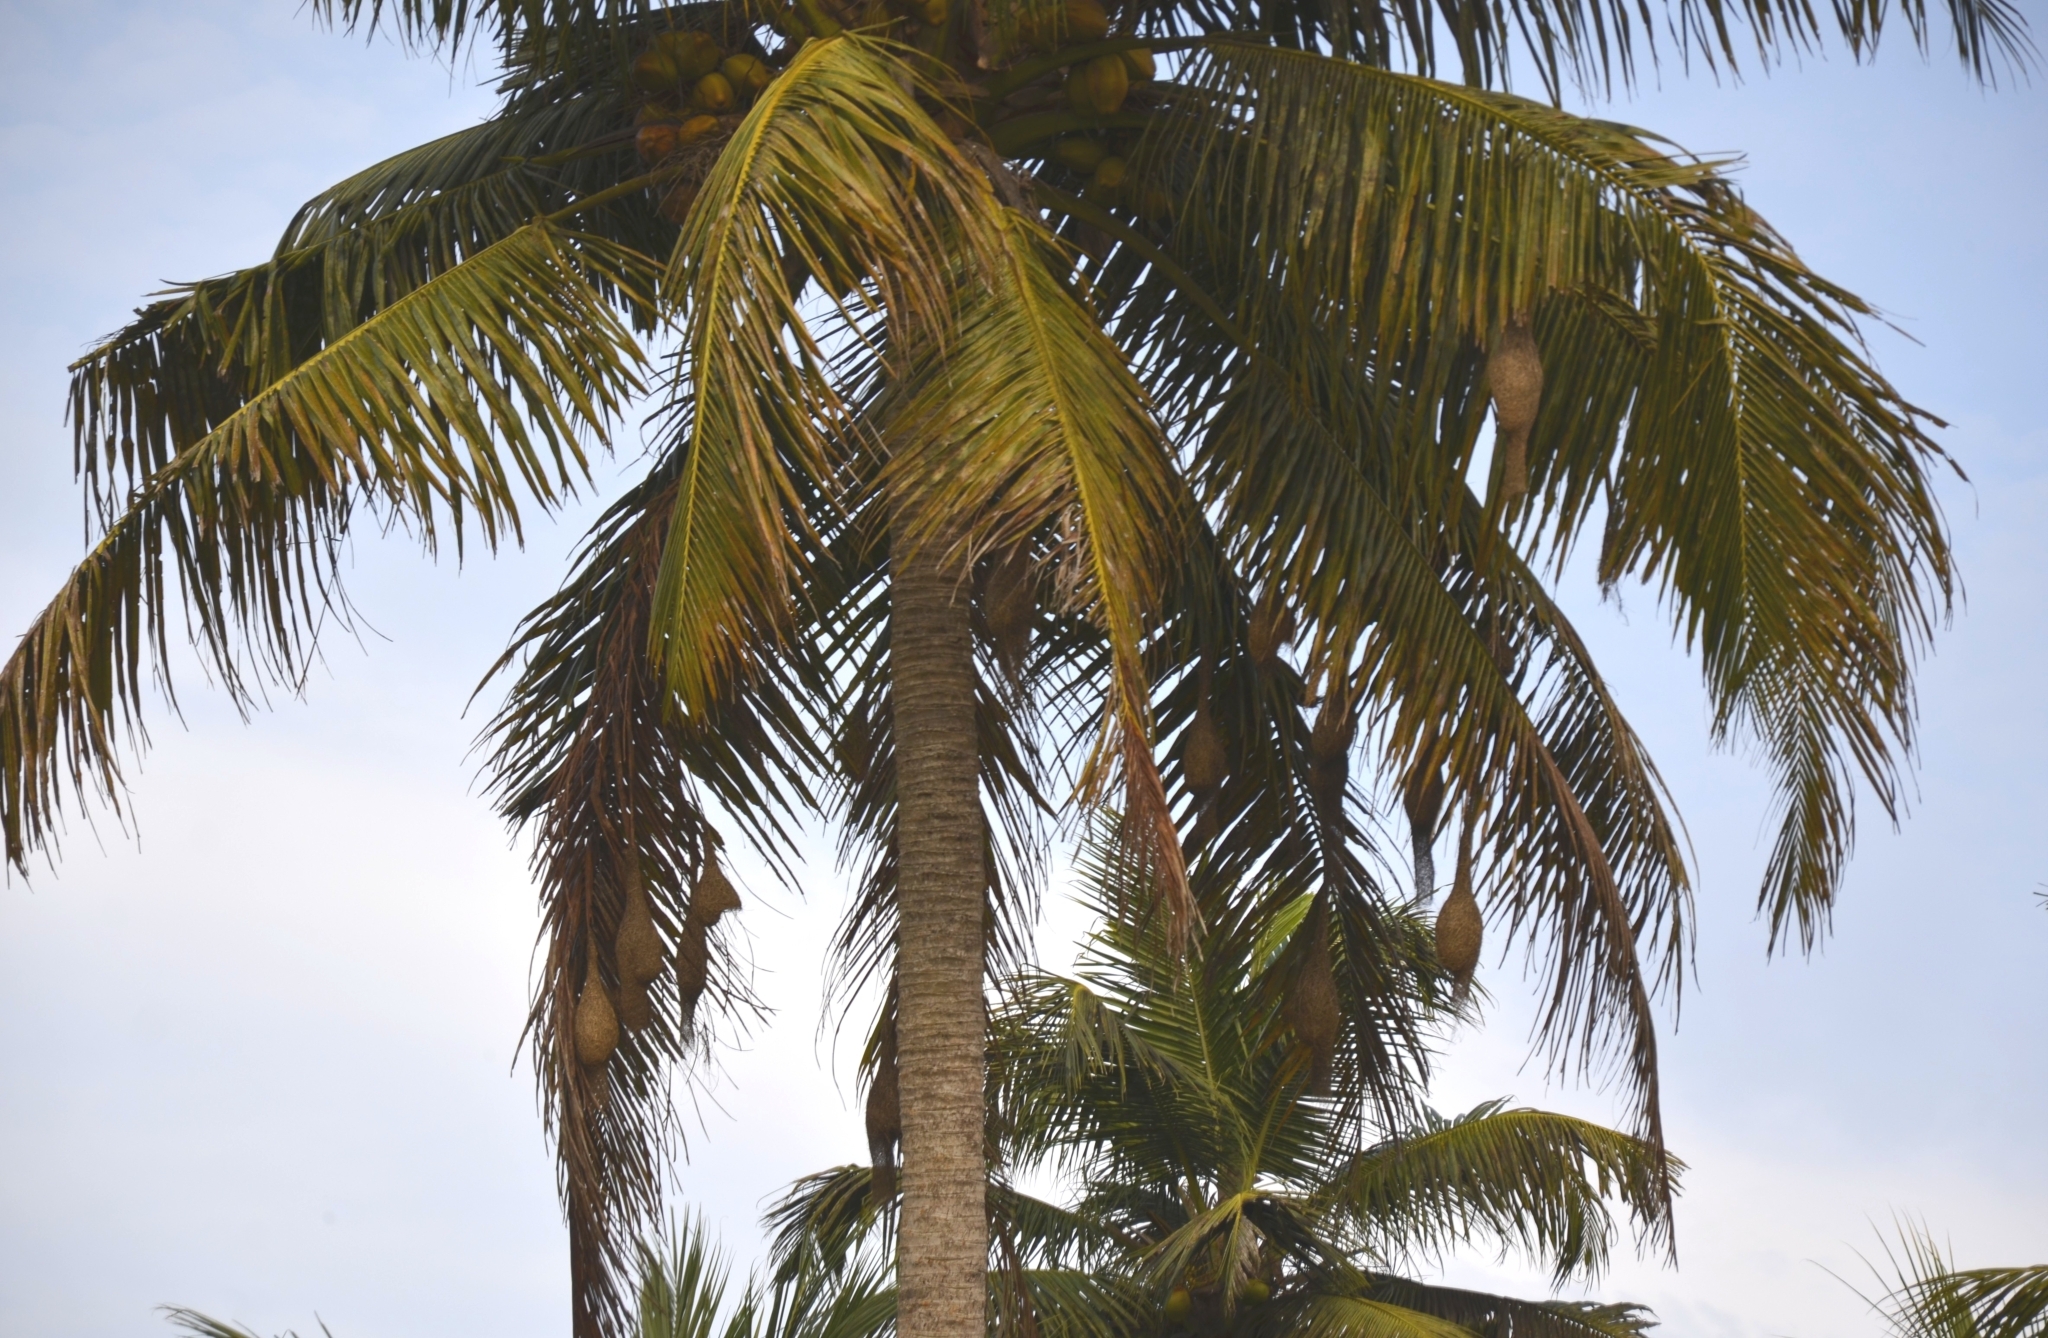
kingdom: Animalia
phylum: Chordata
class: Aves
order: Passeriformes
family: Ploceidae
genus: Ploceus
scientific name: Ploceus philippinus
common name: Baya weaver
